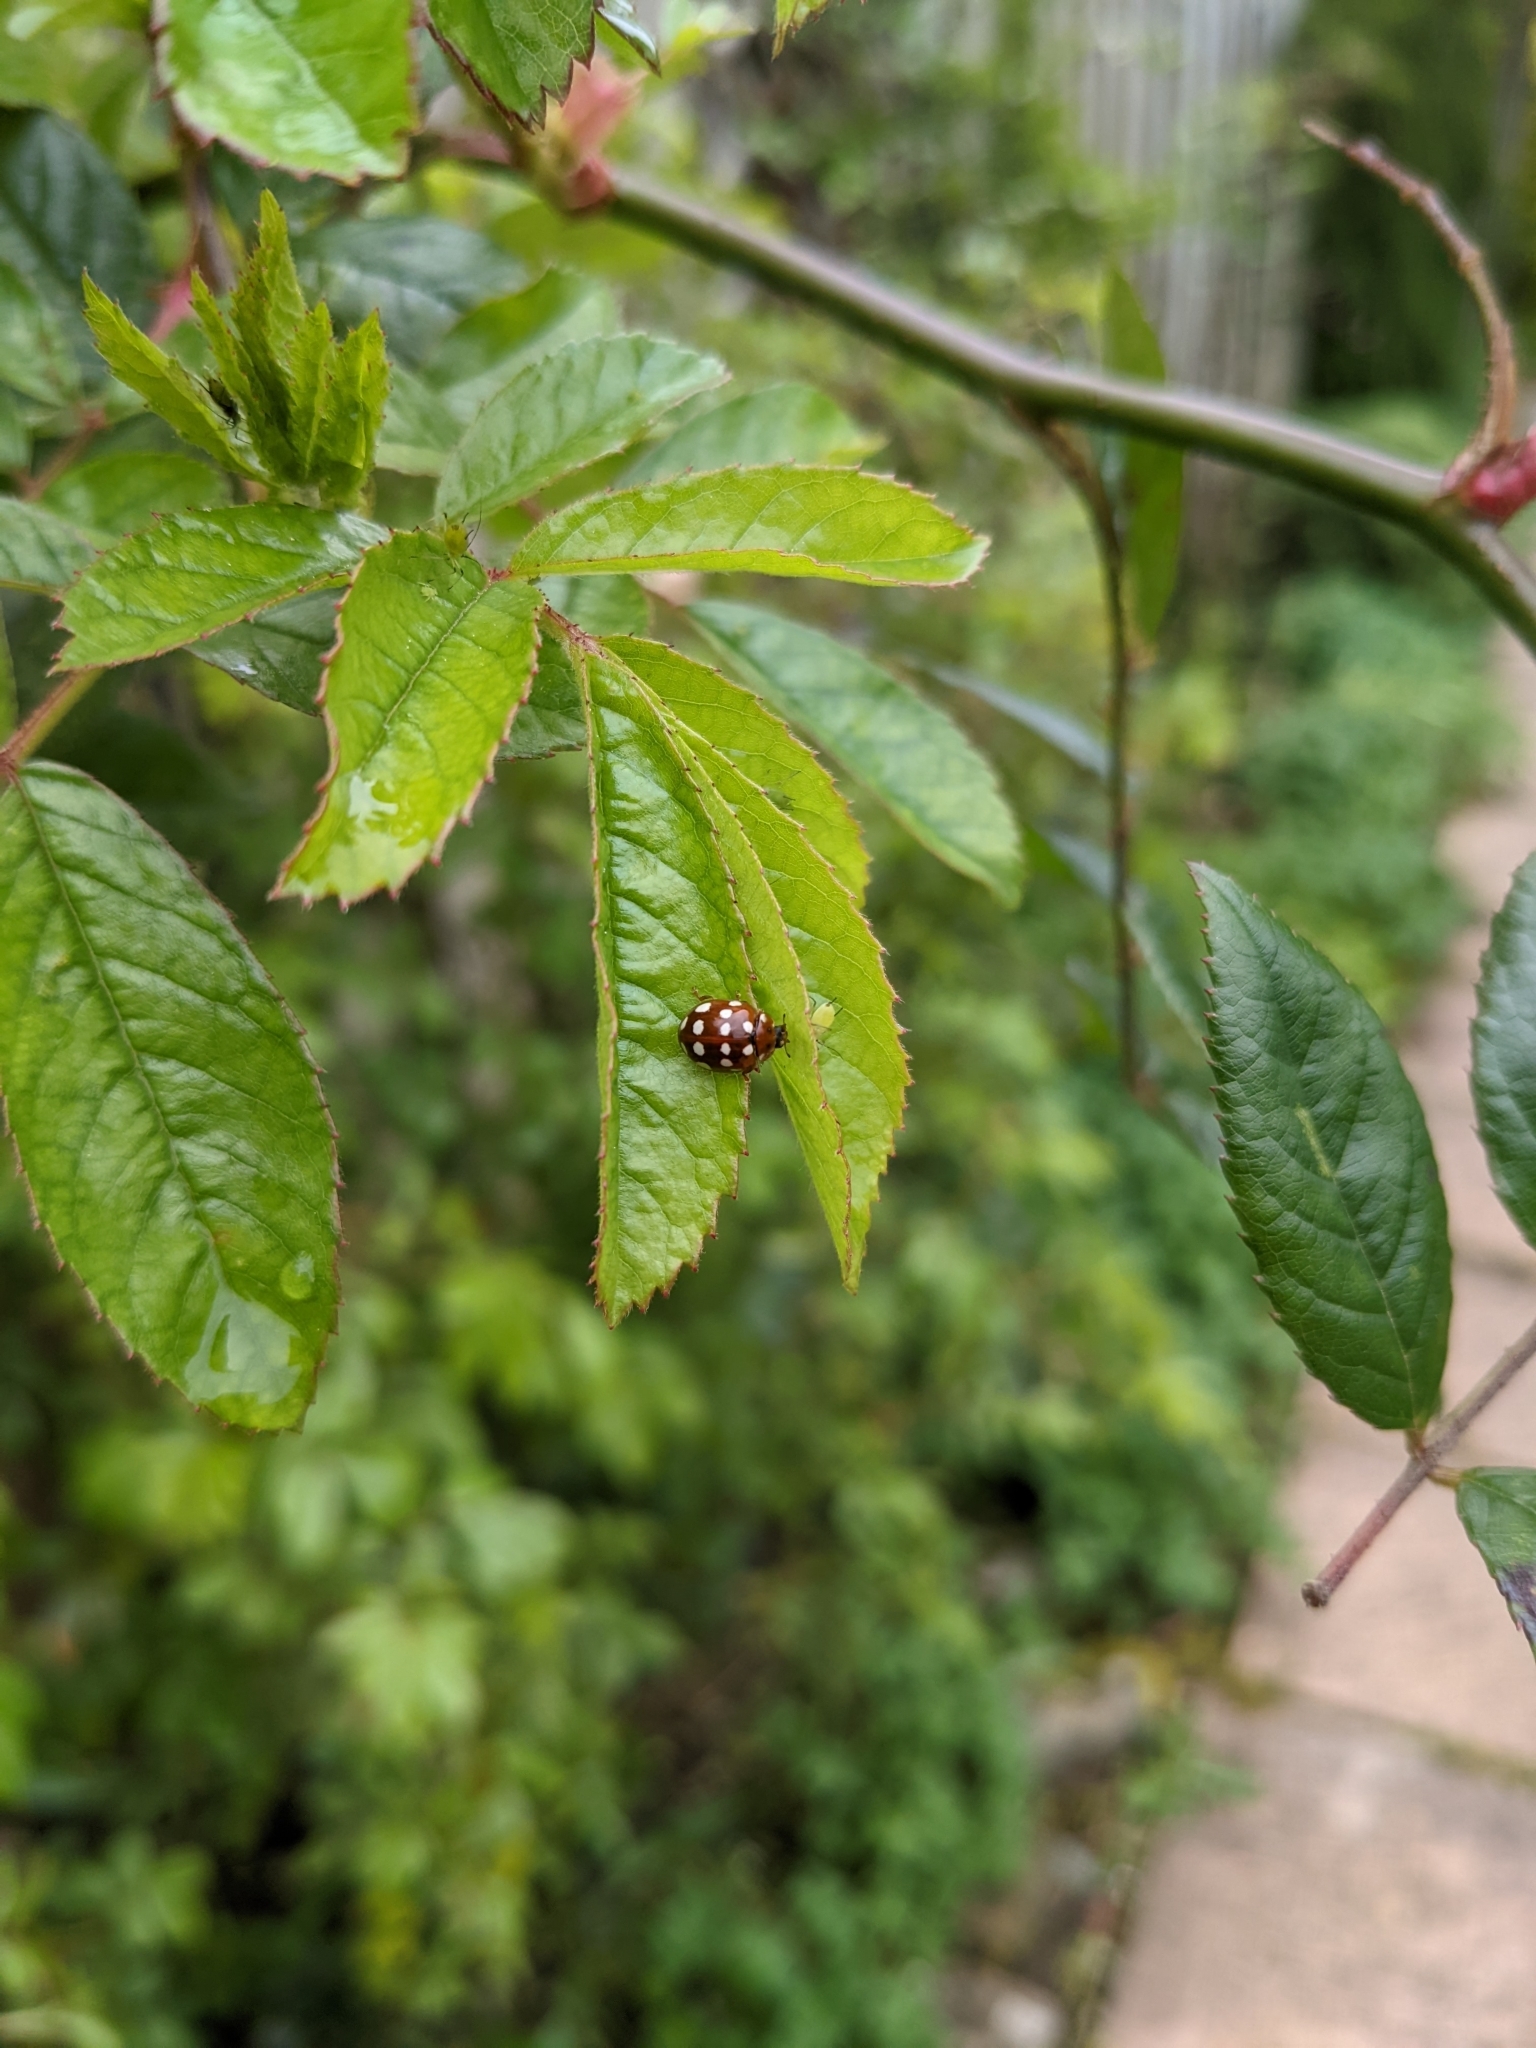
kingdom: Animalia
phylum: Arthropoda
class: Insecta
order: Coleoptera
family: Coccinellidae
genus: Calvia
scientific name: Calvia quatuordecimguttata
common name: Cream-spot ladybird
